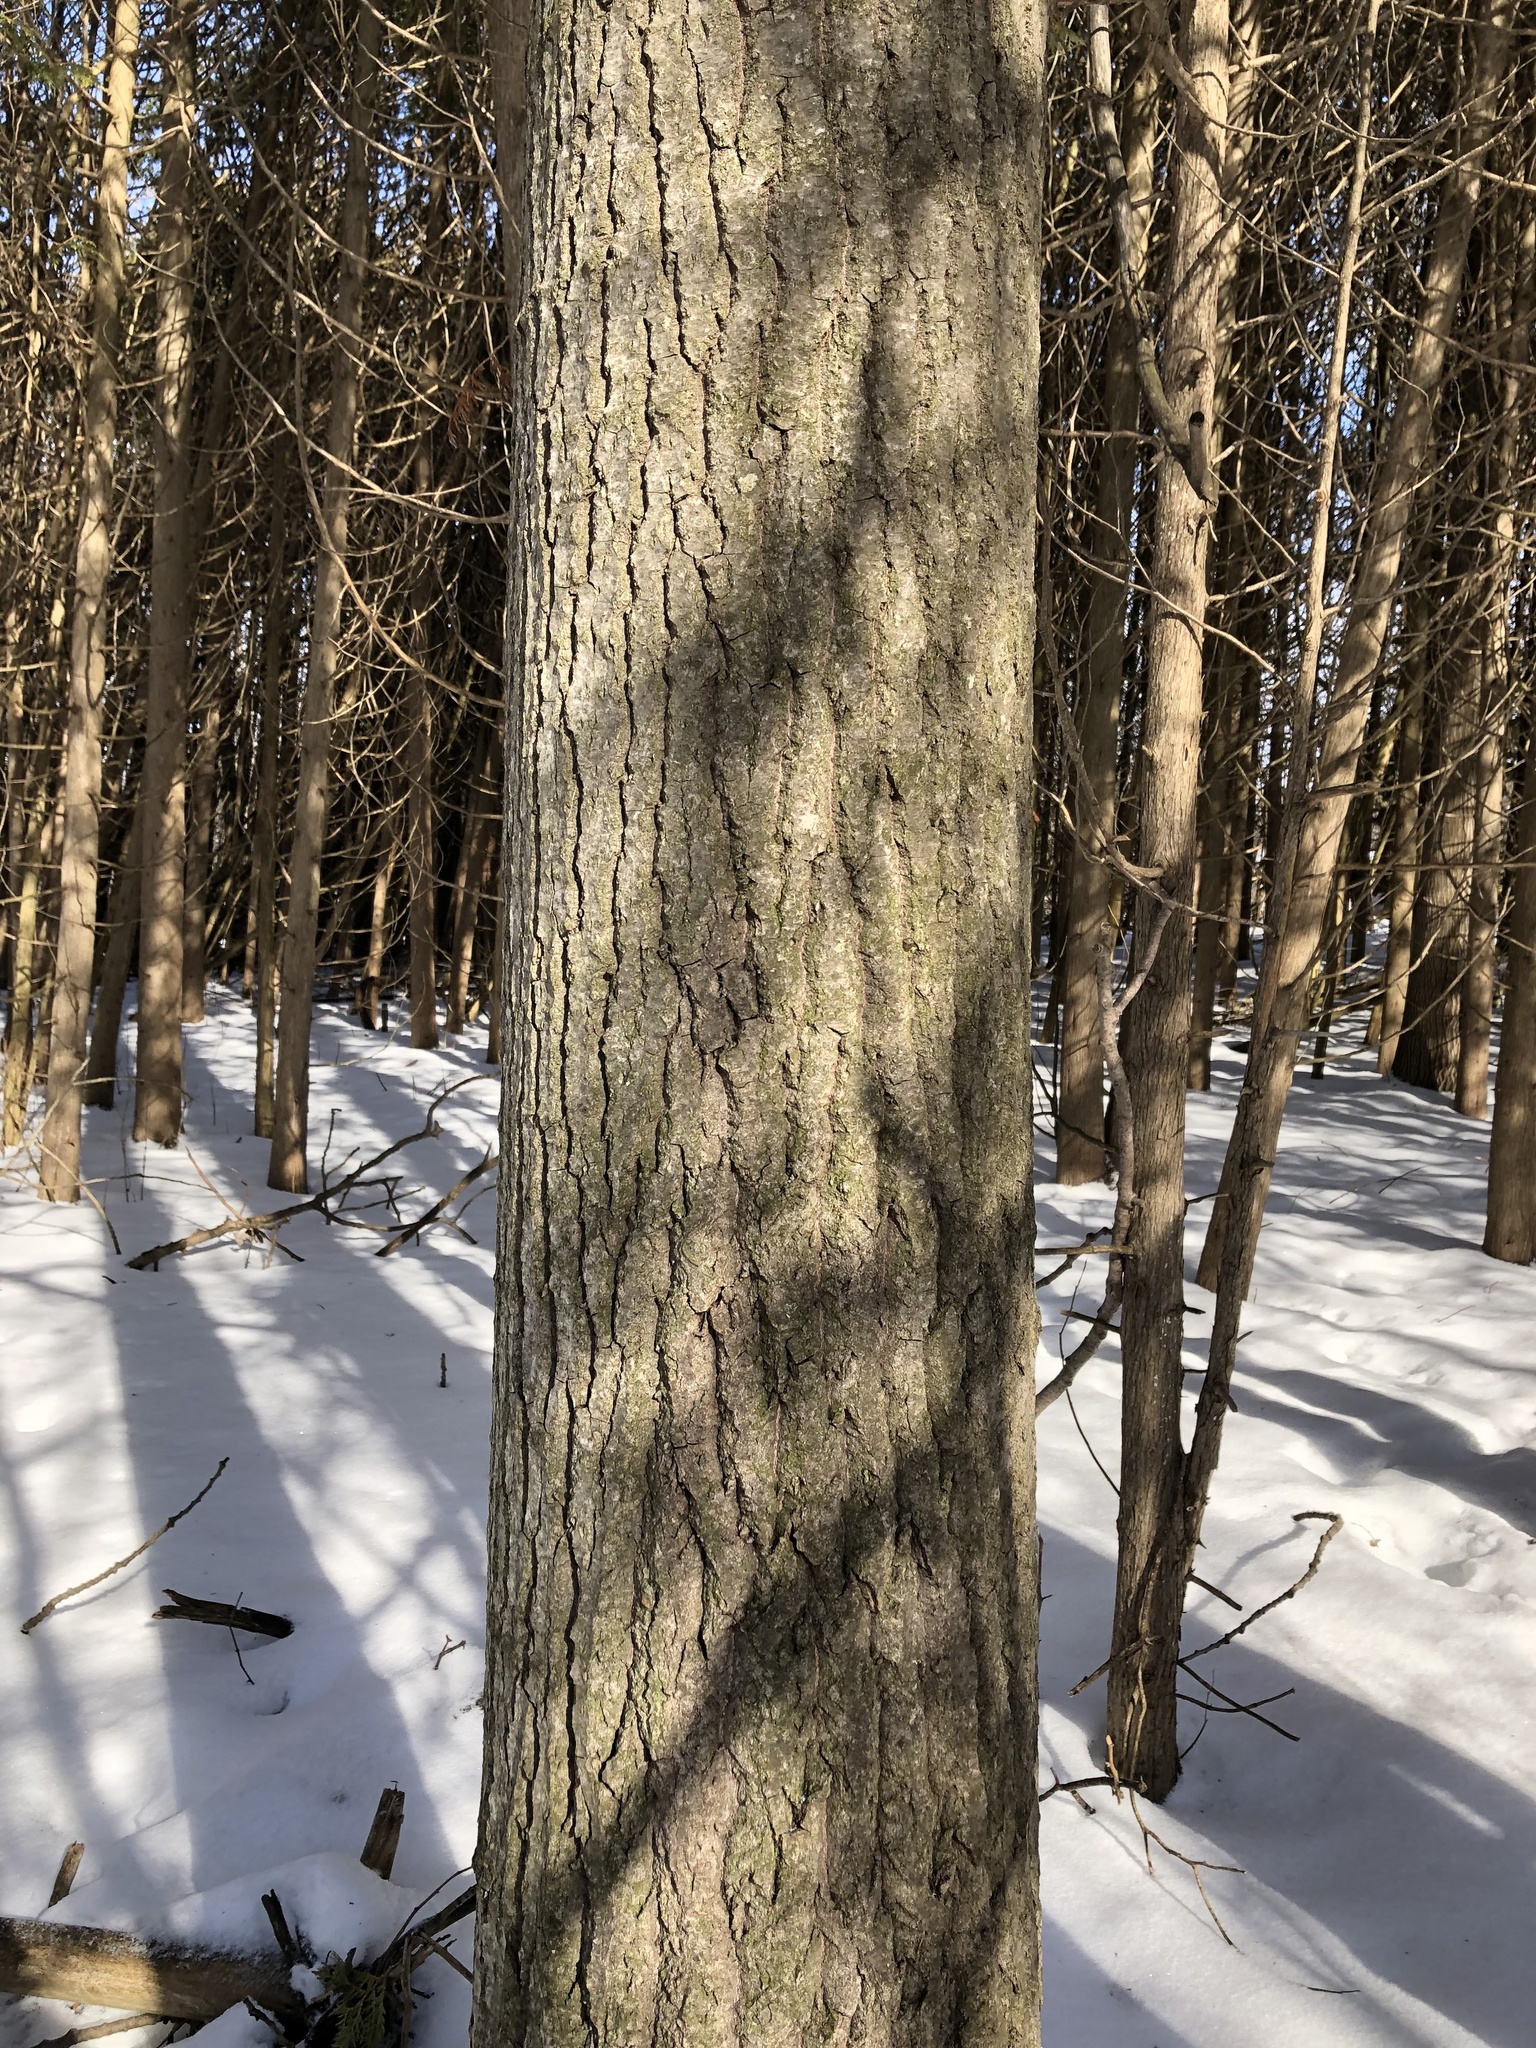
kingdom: Plantae
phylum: Tracheophyta
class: Pinopsida
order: Pinales
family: Pinaceae
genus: Pinus
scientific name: Pinus strobus
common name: Weymouth pine
